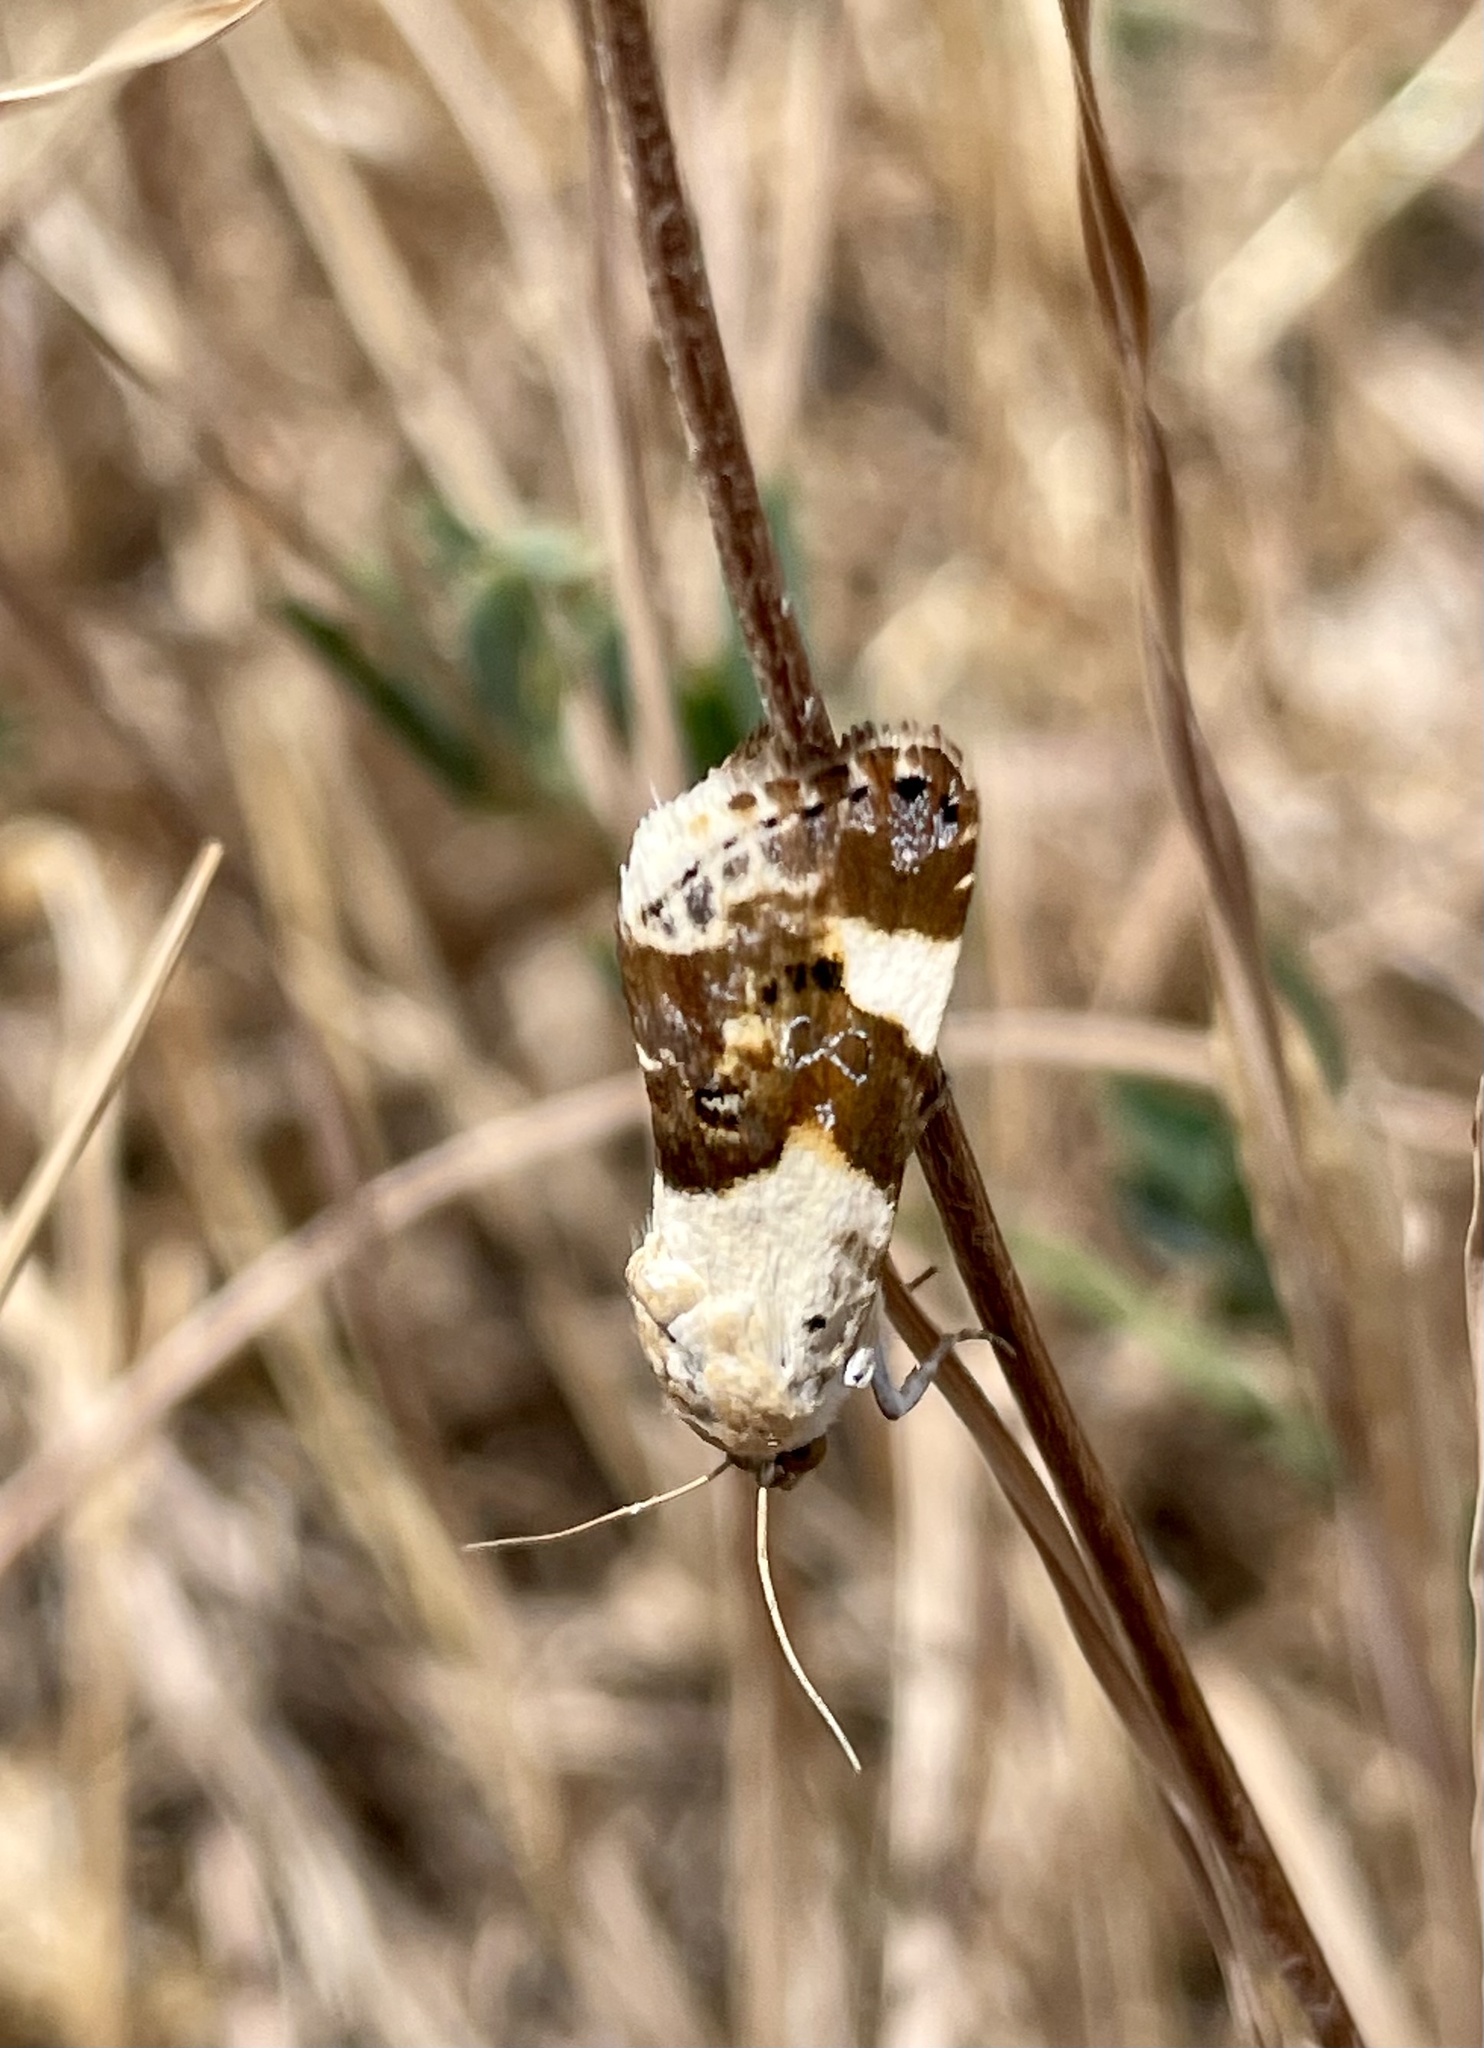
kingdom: Animalia
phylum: Arthropoda
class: Insecta
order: Lepidoptera
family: Noctuidae
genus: Acontia
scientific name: Acontia lucida
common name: Pale shoulder
